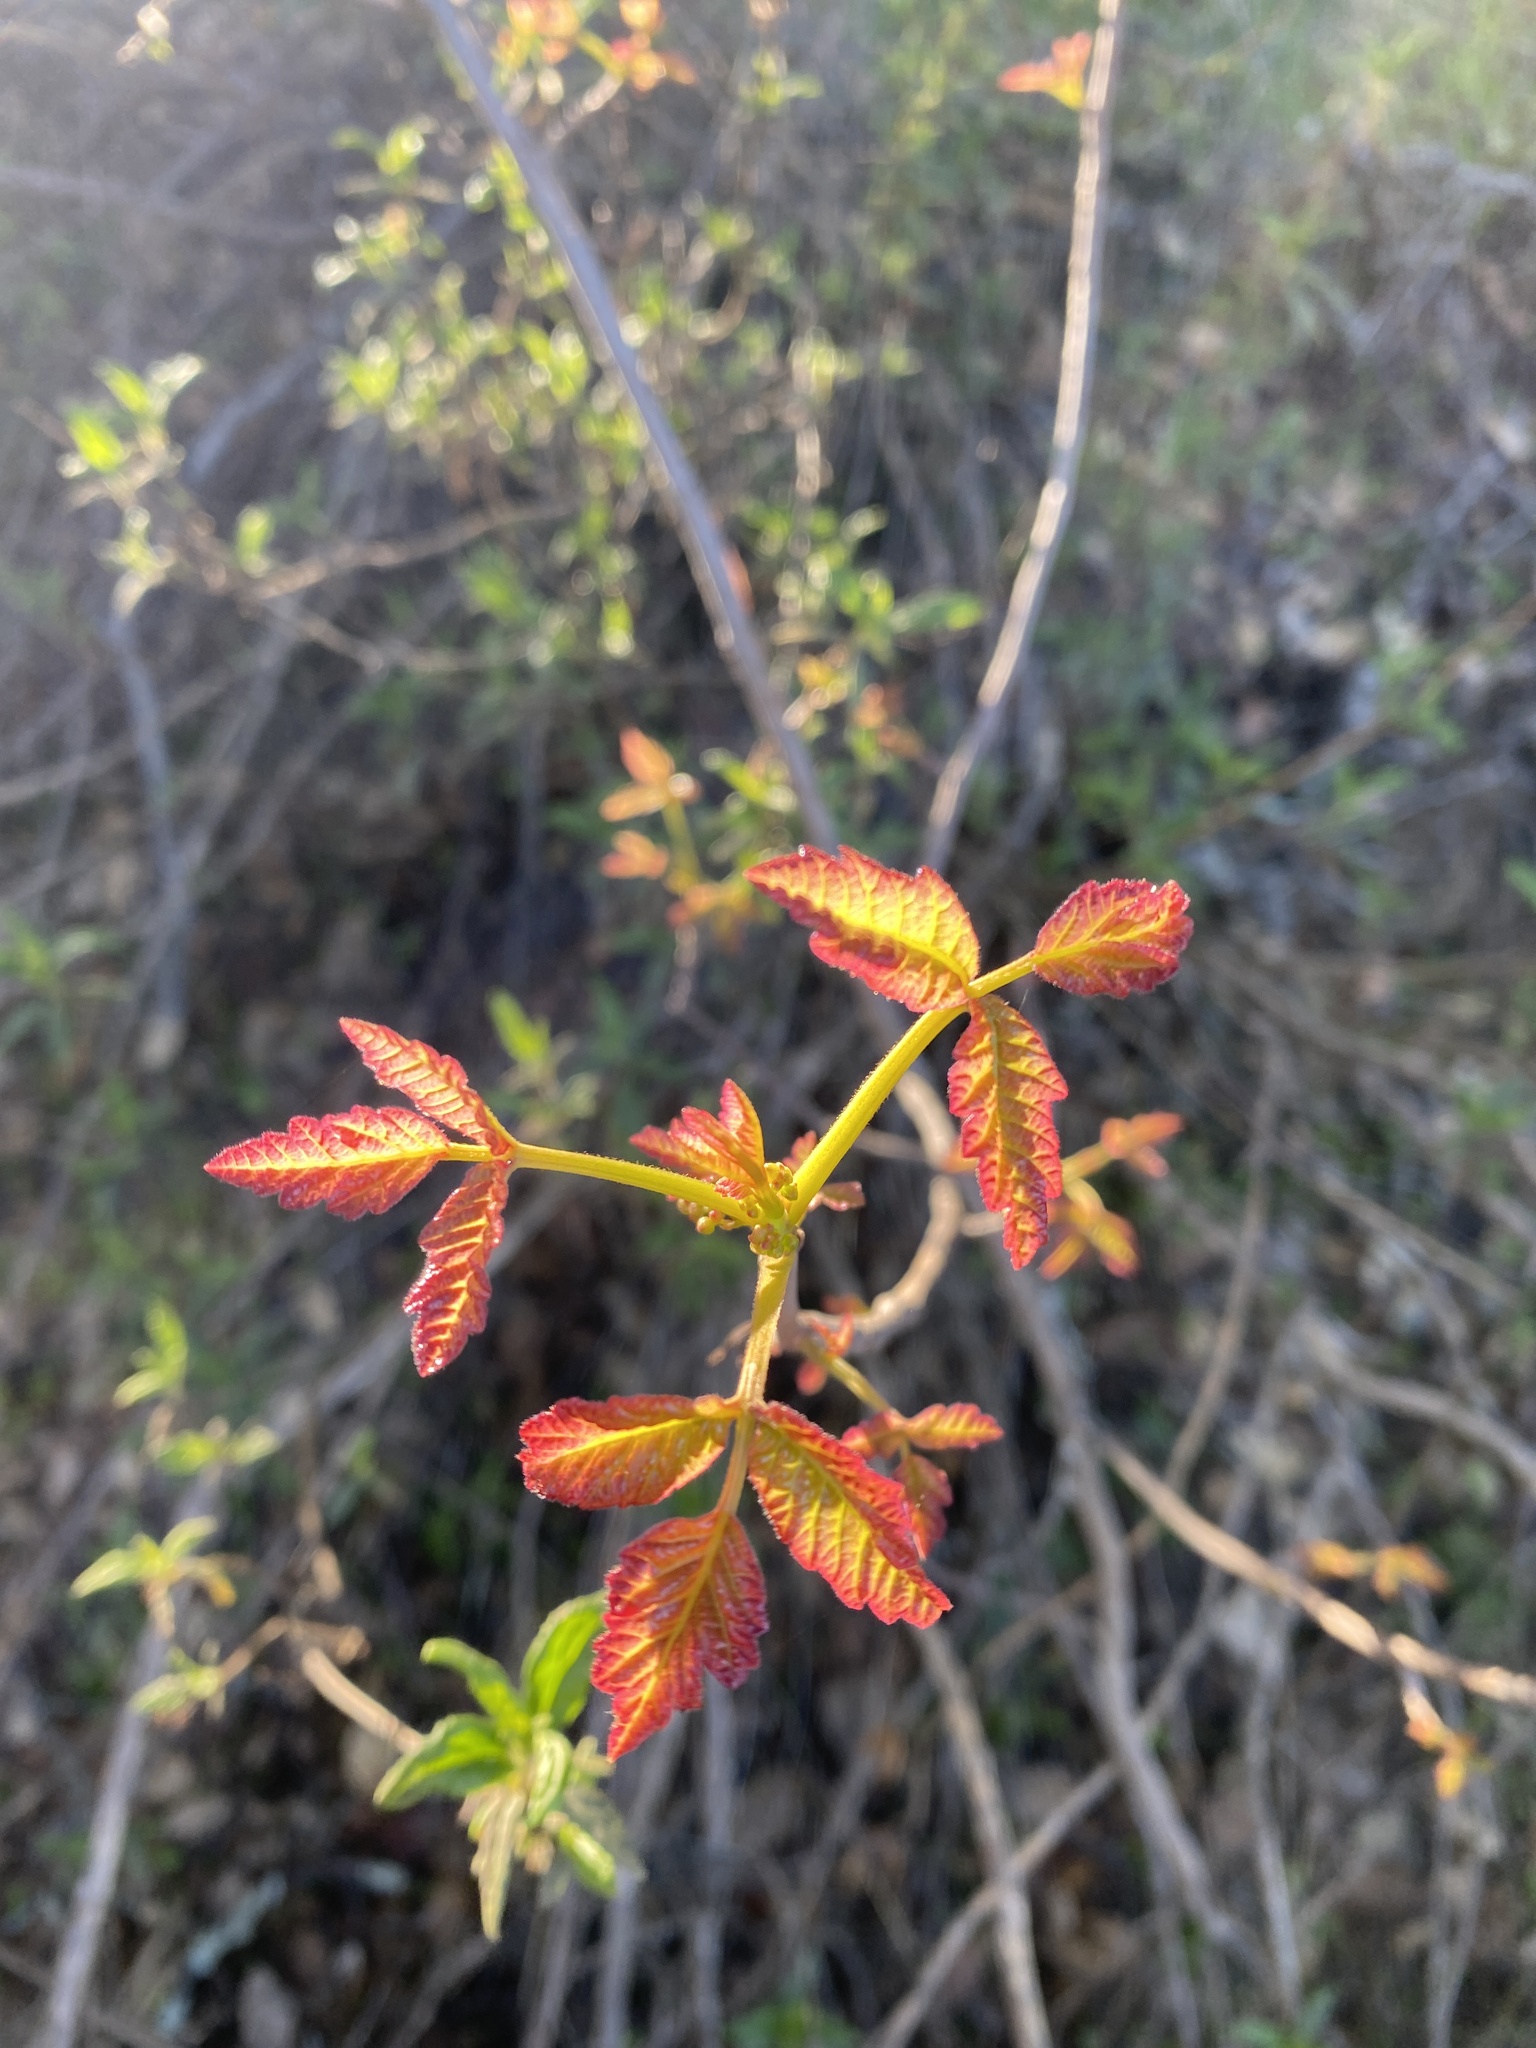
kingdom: Plantae
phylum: Tracheophyta
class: Magnoliopsida
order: Sapindales
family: Anacardiaceae
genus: Toxicodendron
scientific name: Toxicodendron diversilobum
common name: Pacific poison-oak
